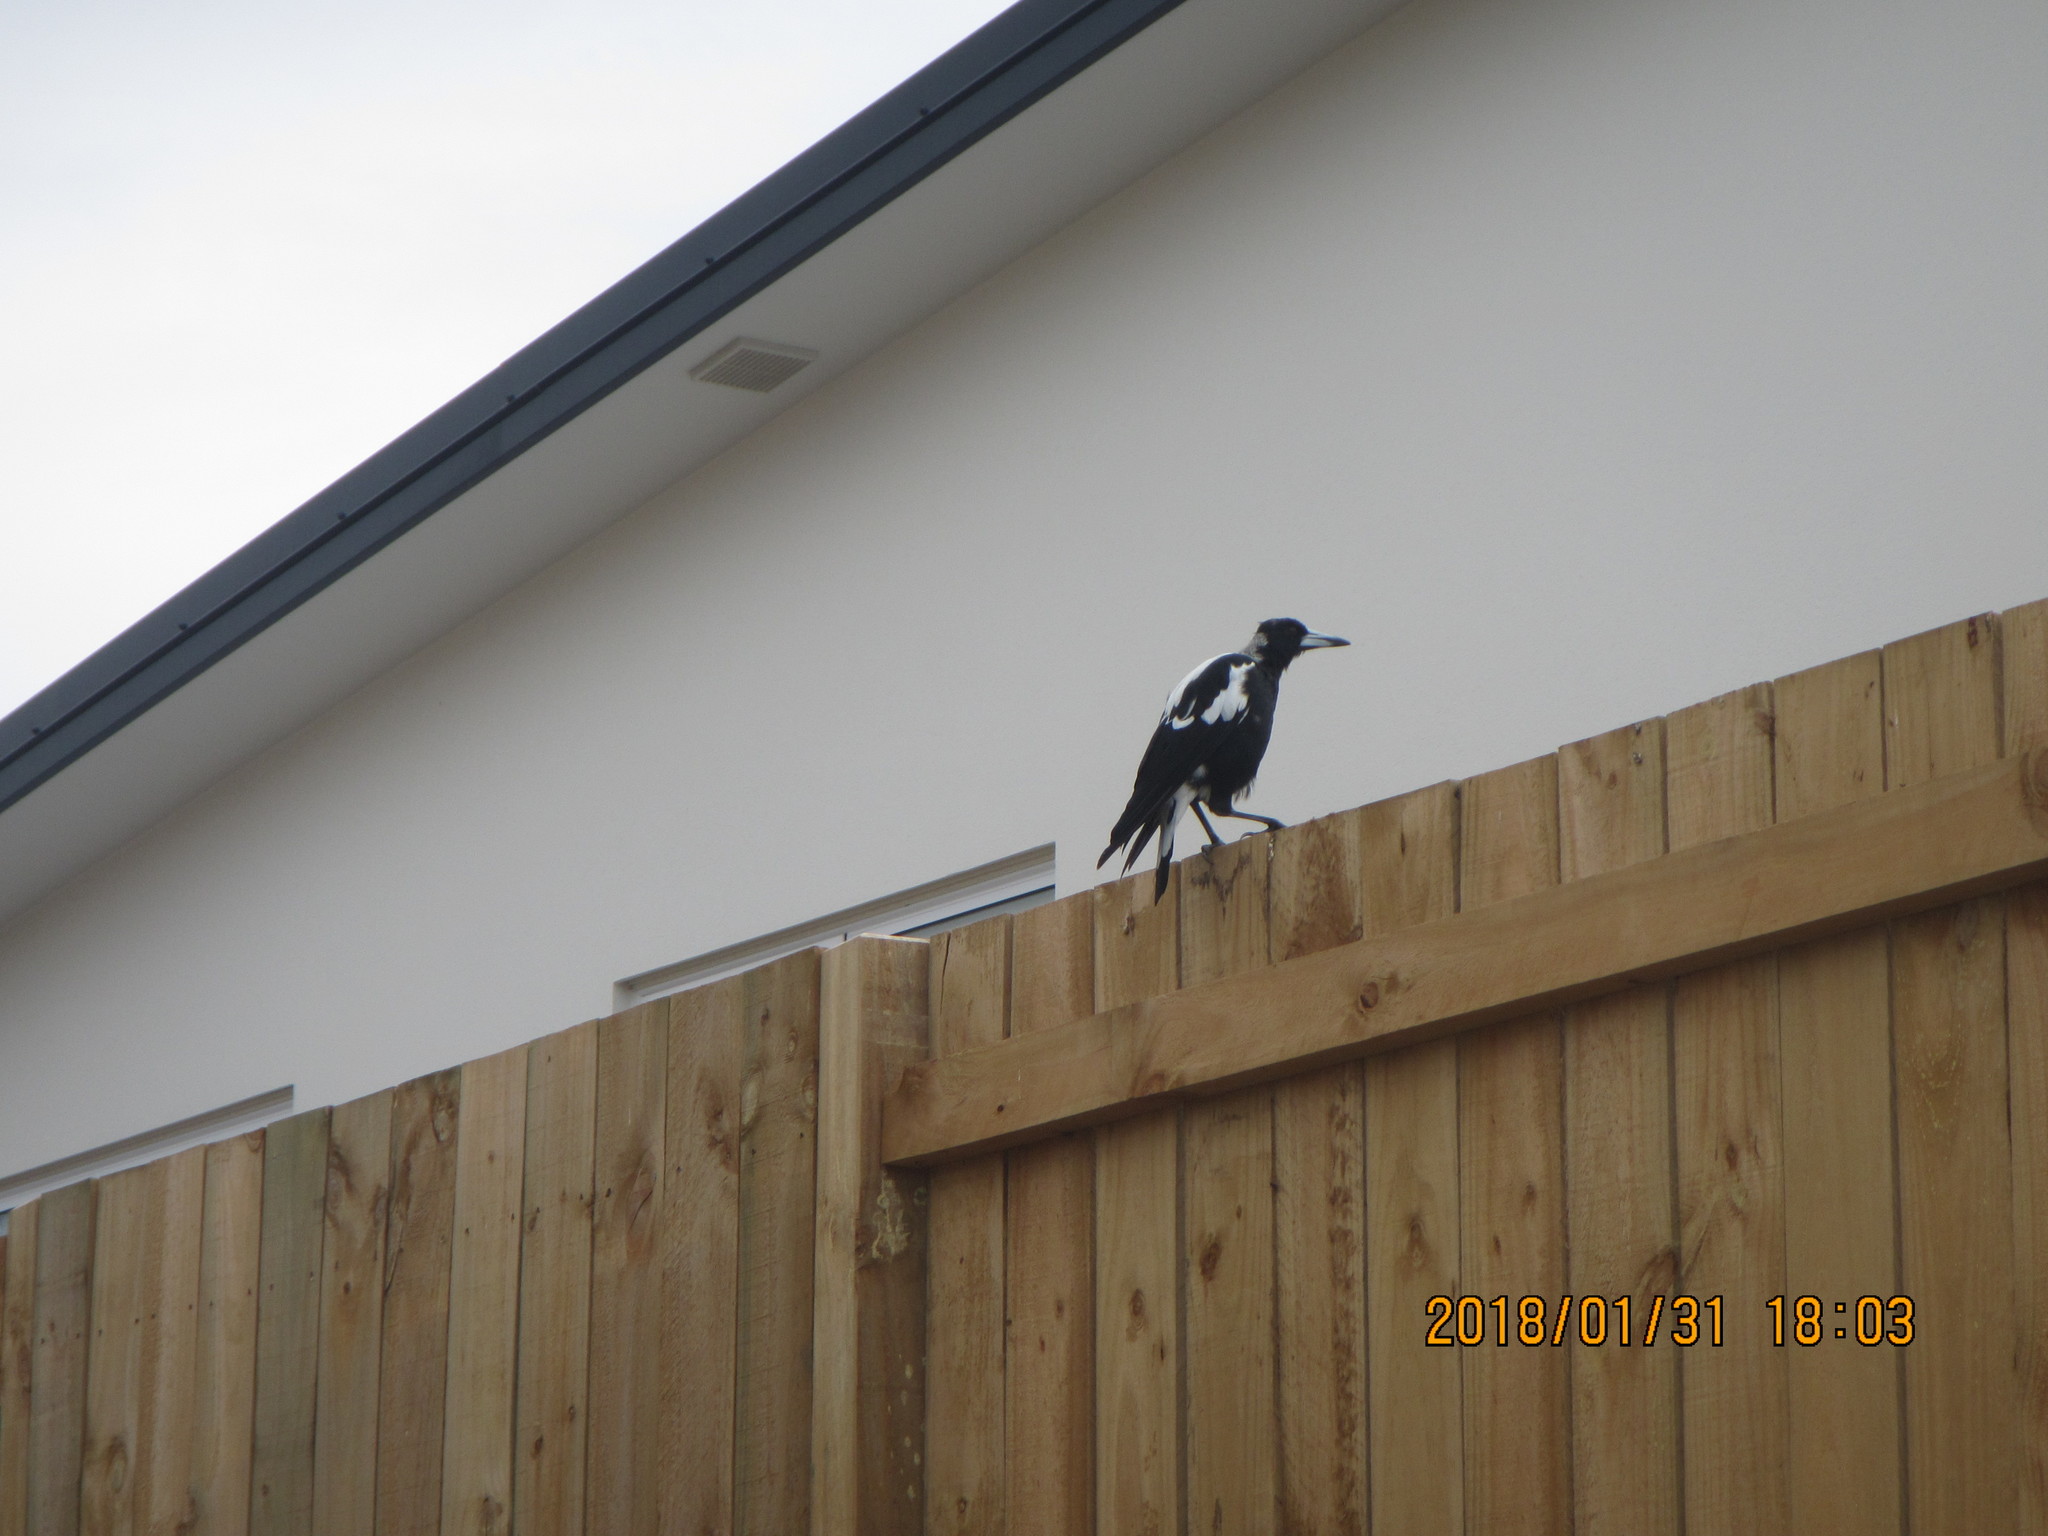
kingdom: Animalia
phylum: Chordata
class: Aves
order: Passeriformes
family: Cracticidae
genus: Gymnorhina
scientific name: Gymnorhina tibicen
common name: Australian magpie
